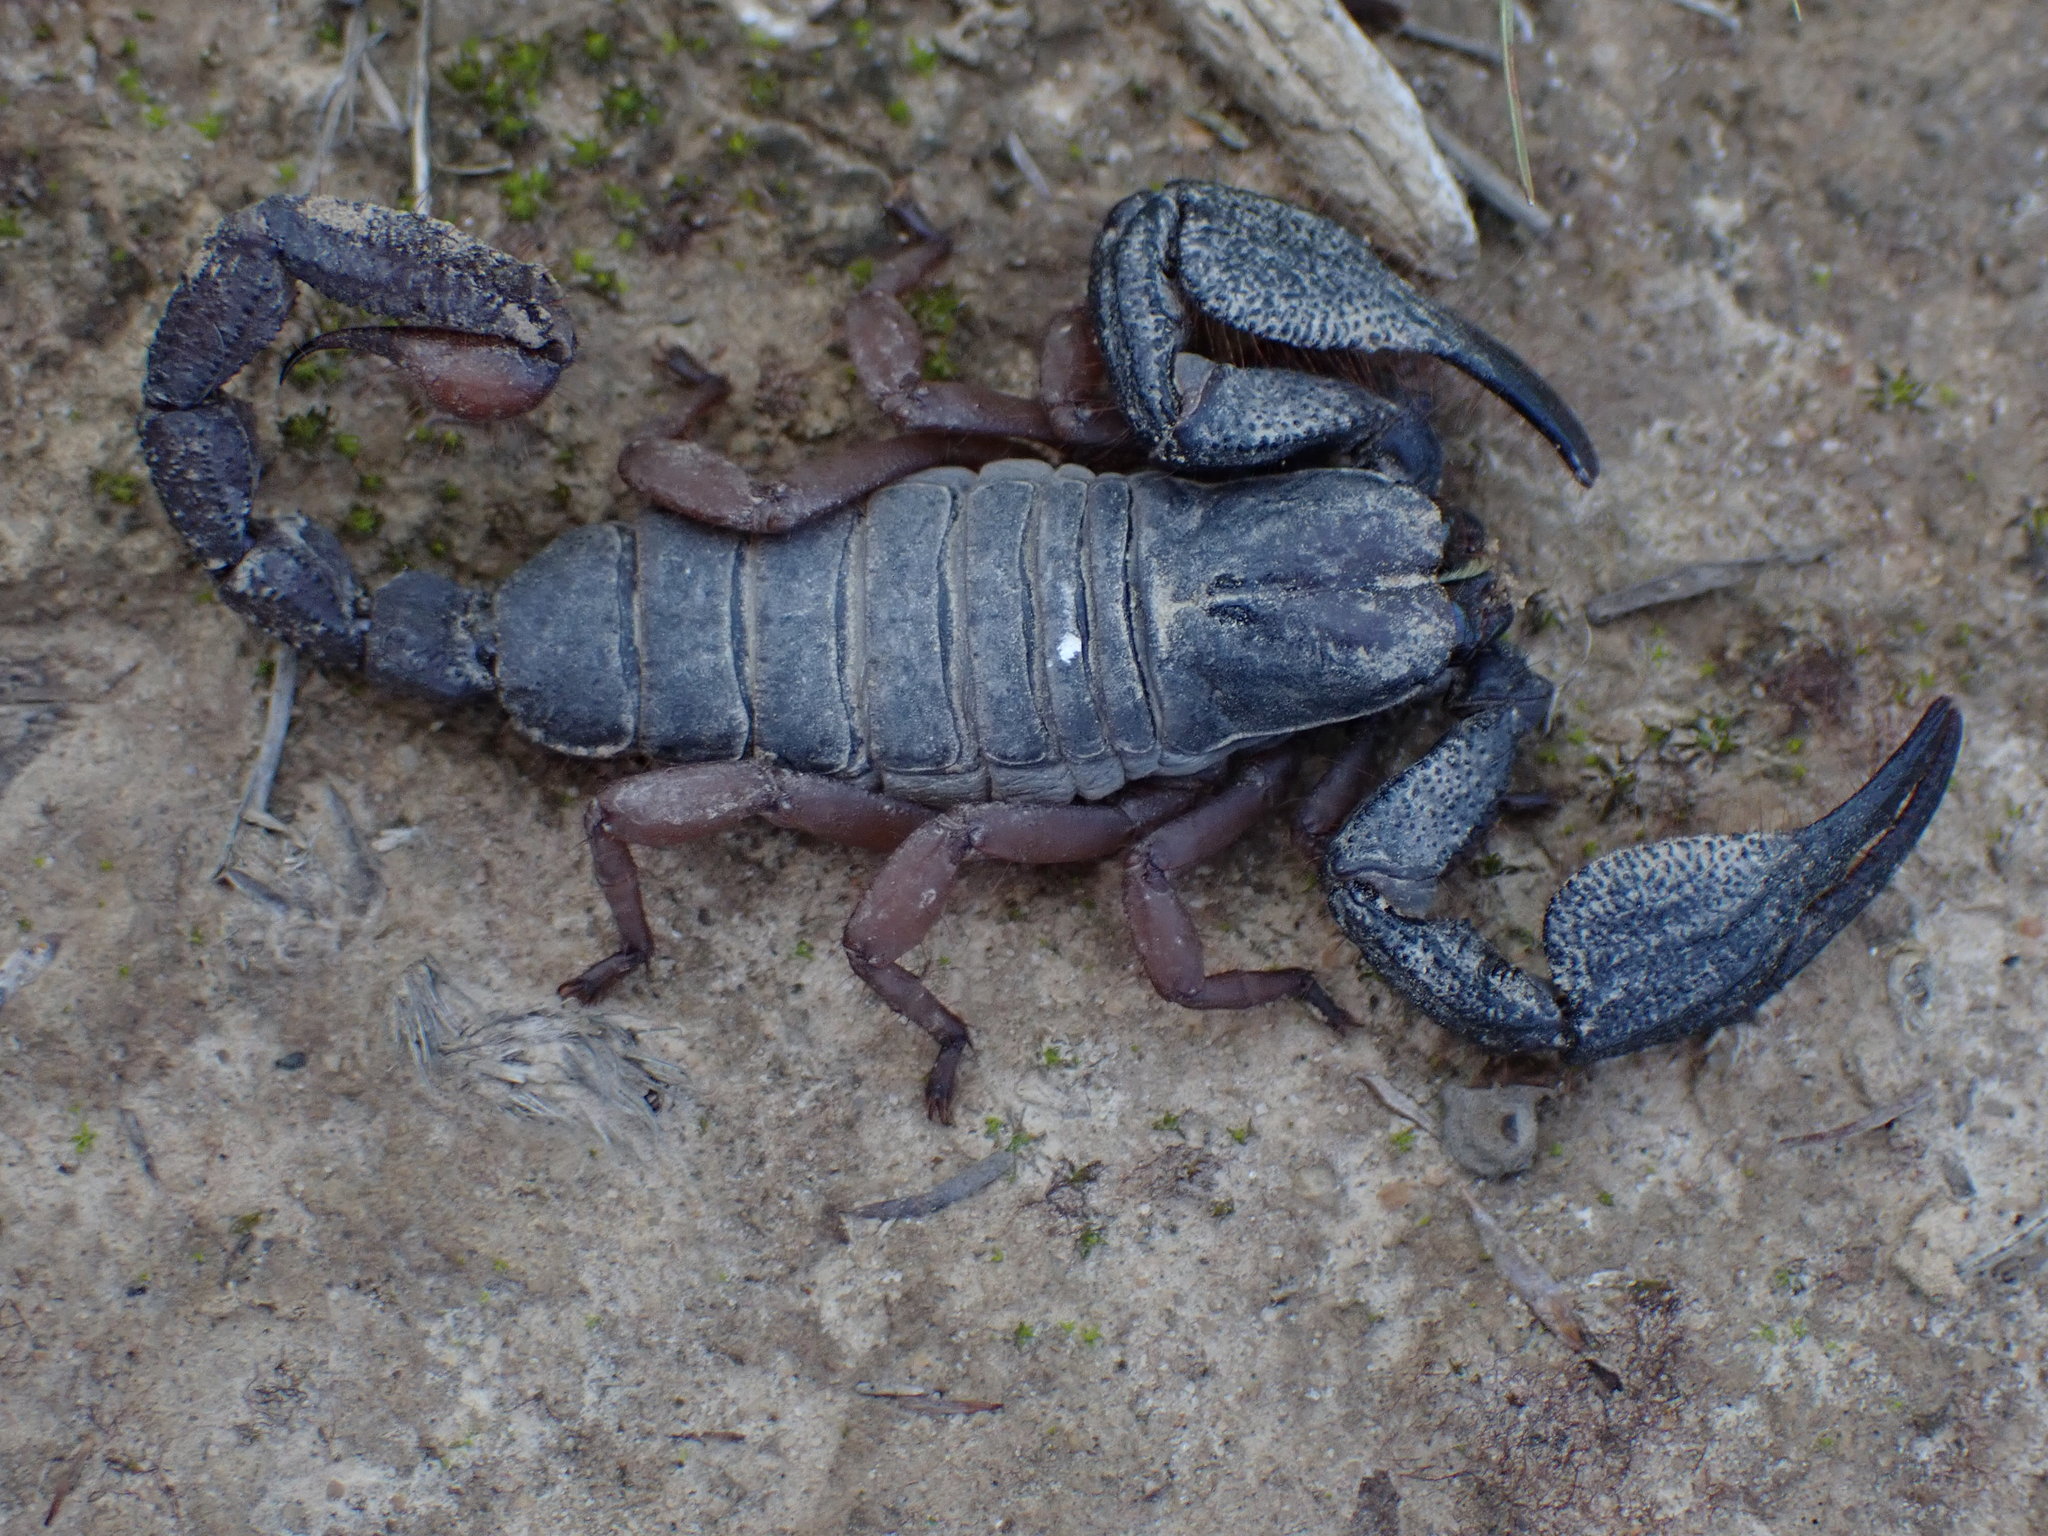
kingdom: Animalia
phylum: Arthropoda
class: Arachnida
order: Scorpiones
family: Scorpionidae
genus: Opistophthalmus
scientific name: Opistophthalmus latimanus
